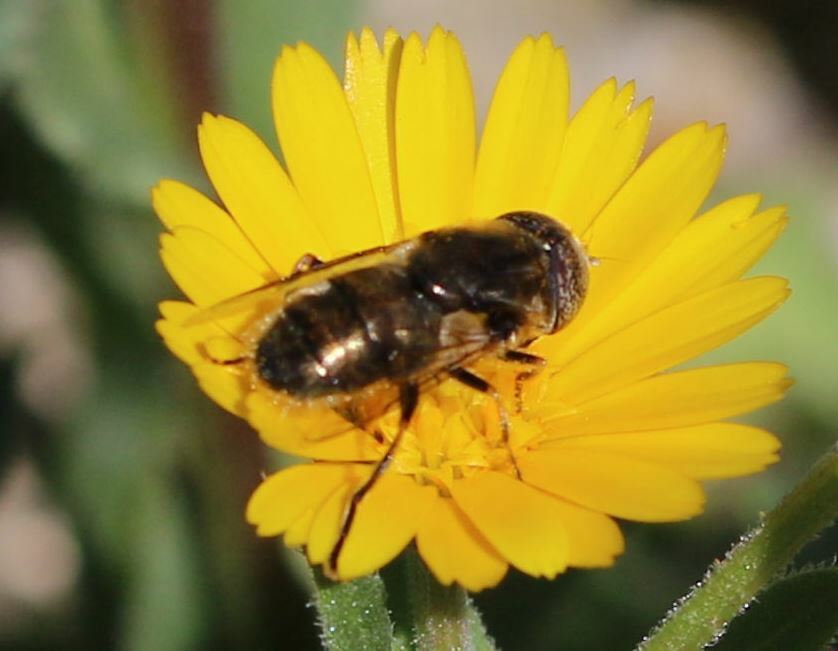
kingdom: Animalia
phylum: Arthropoda
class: Insecta
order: Diptera
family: Syrphidae
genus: Eristalinus
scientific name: Eristalinus aeneus
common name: Syrphid fly
